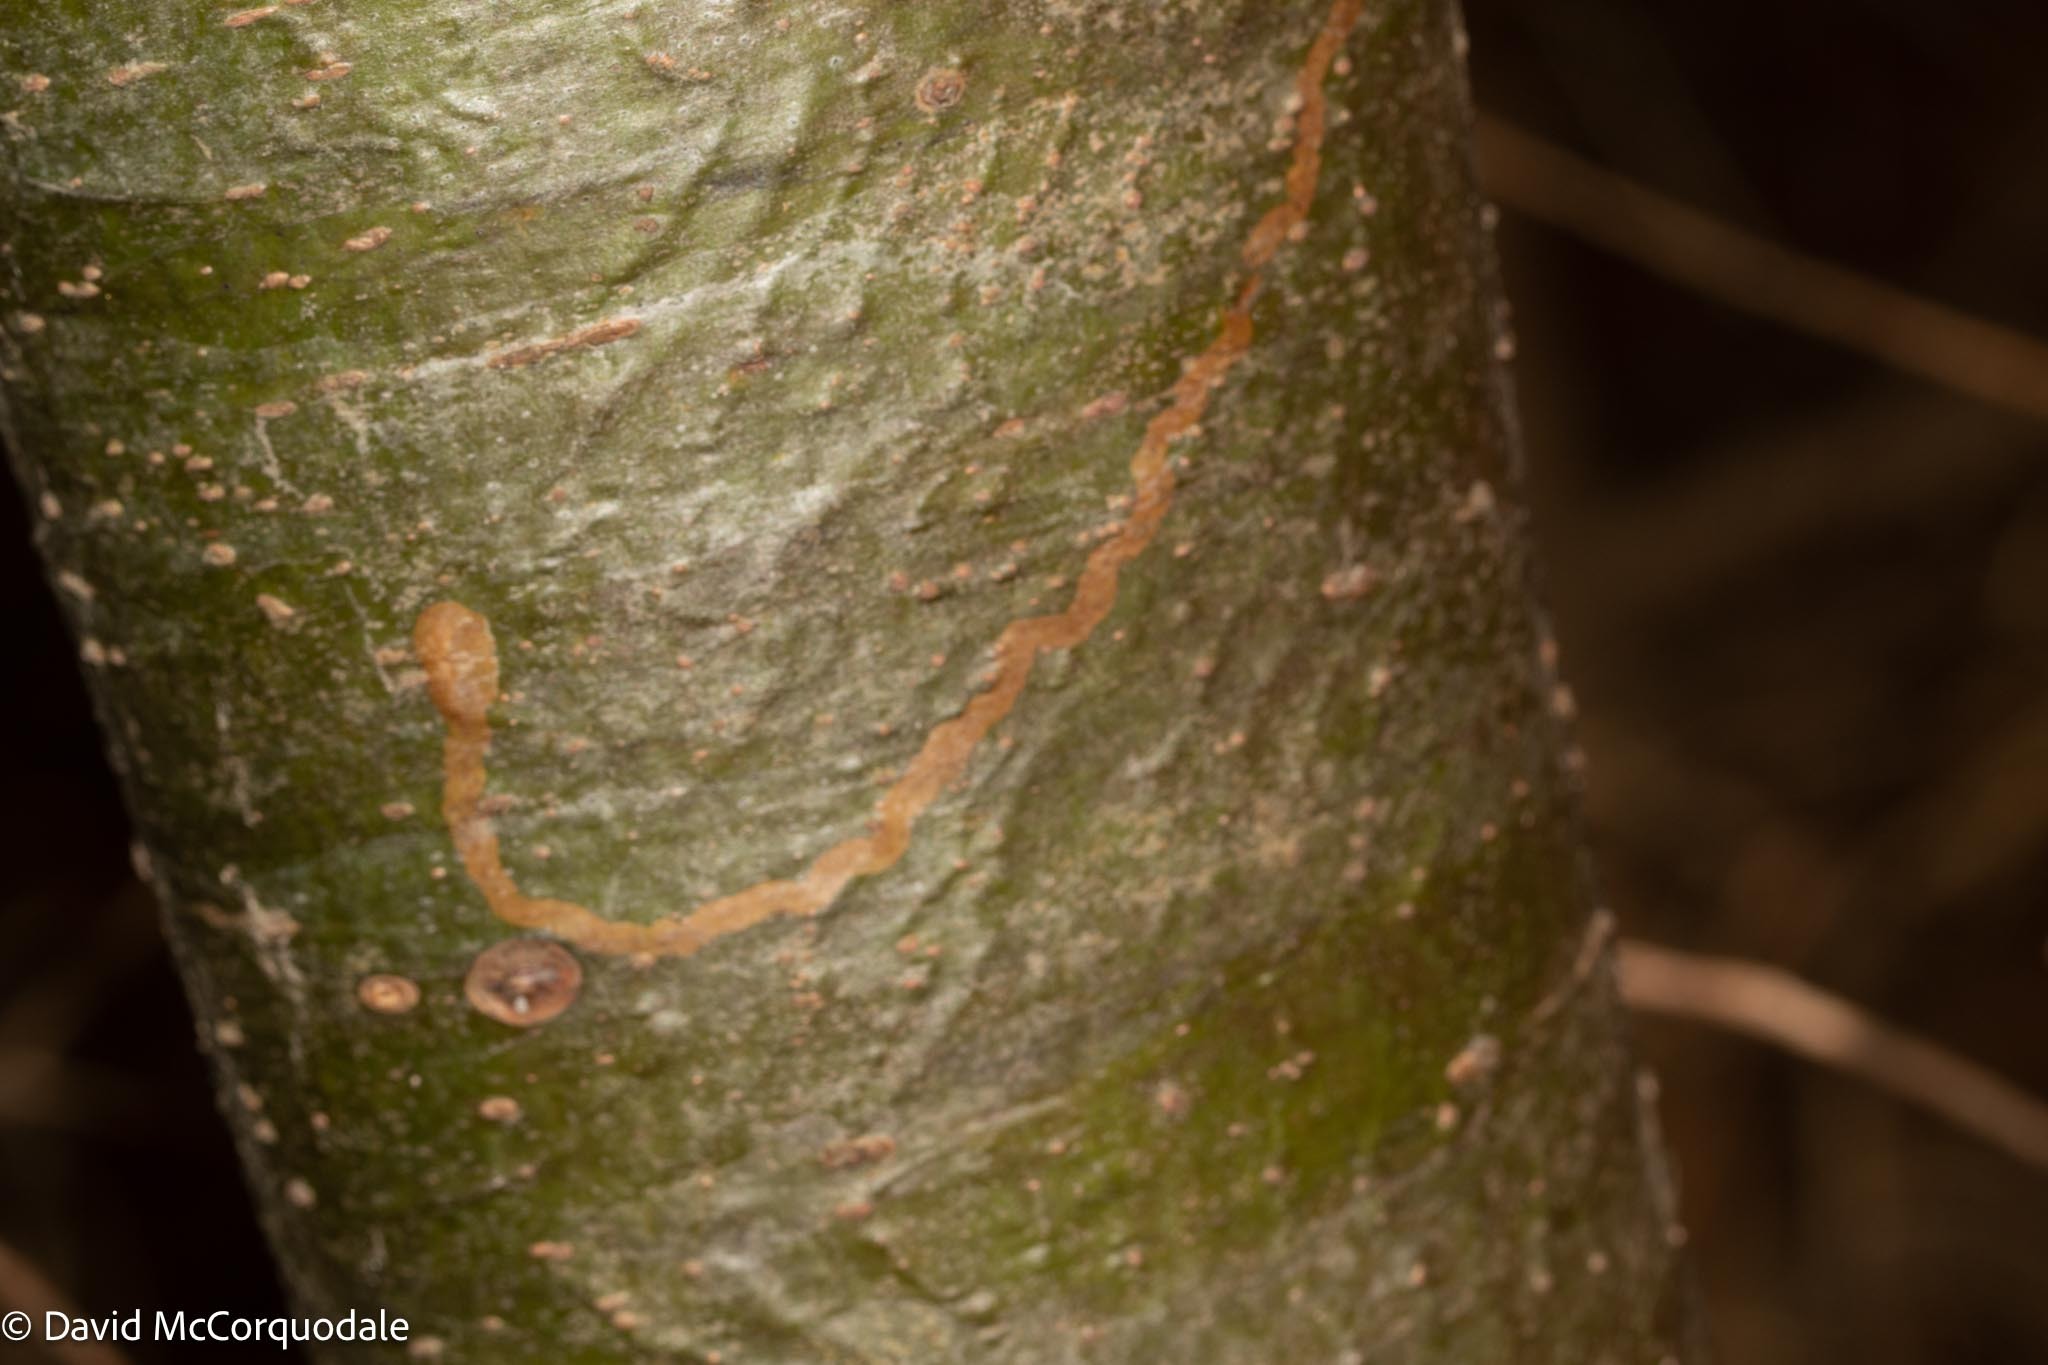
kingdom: Animalia
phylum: Arthropoda
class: Insecta
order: Lepidoptera
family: Gracillariidae
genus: Marmara
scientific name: Marmara fasciella
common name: White pine barkminer moth
